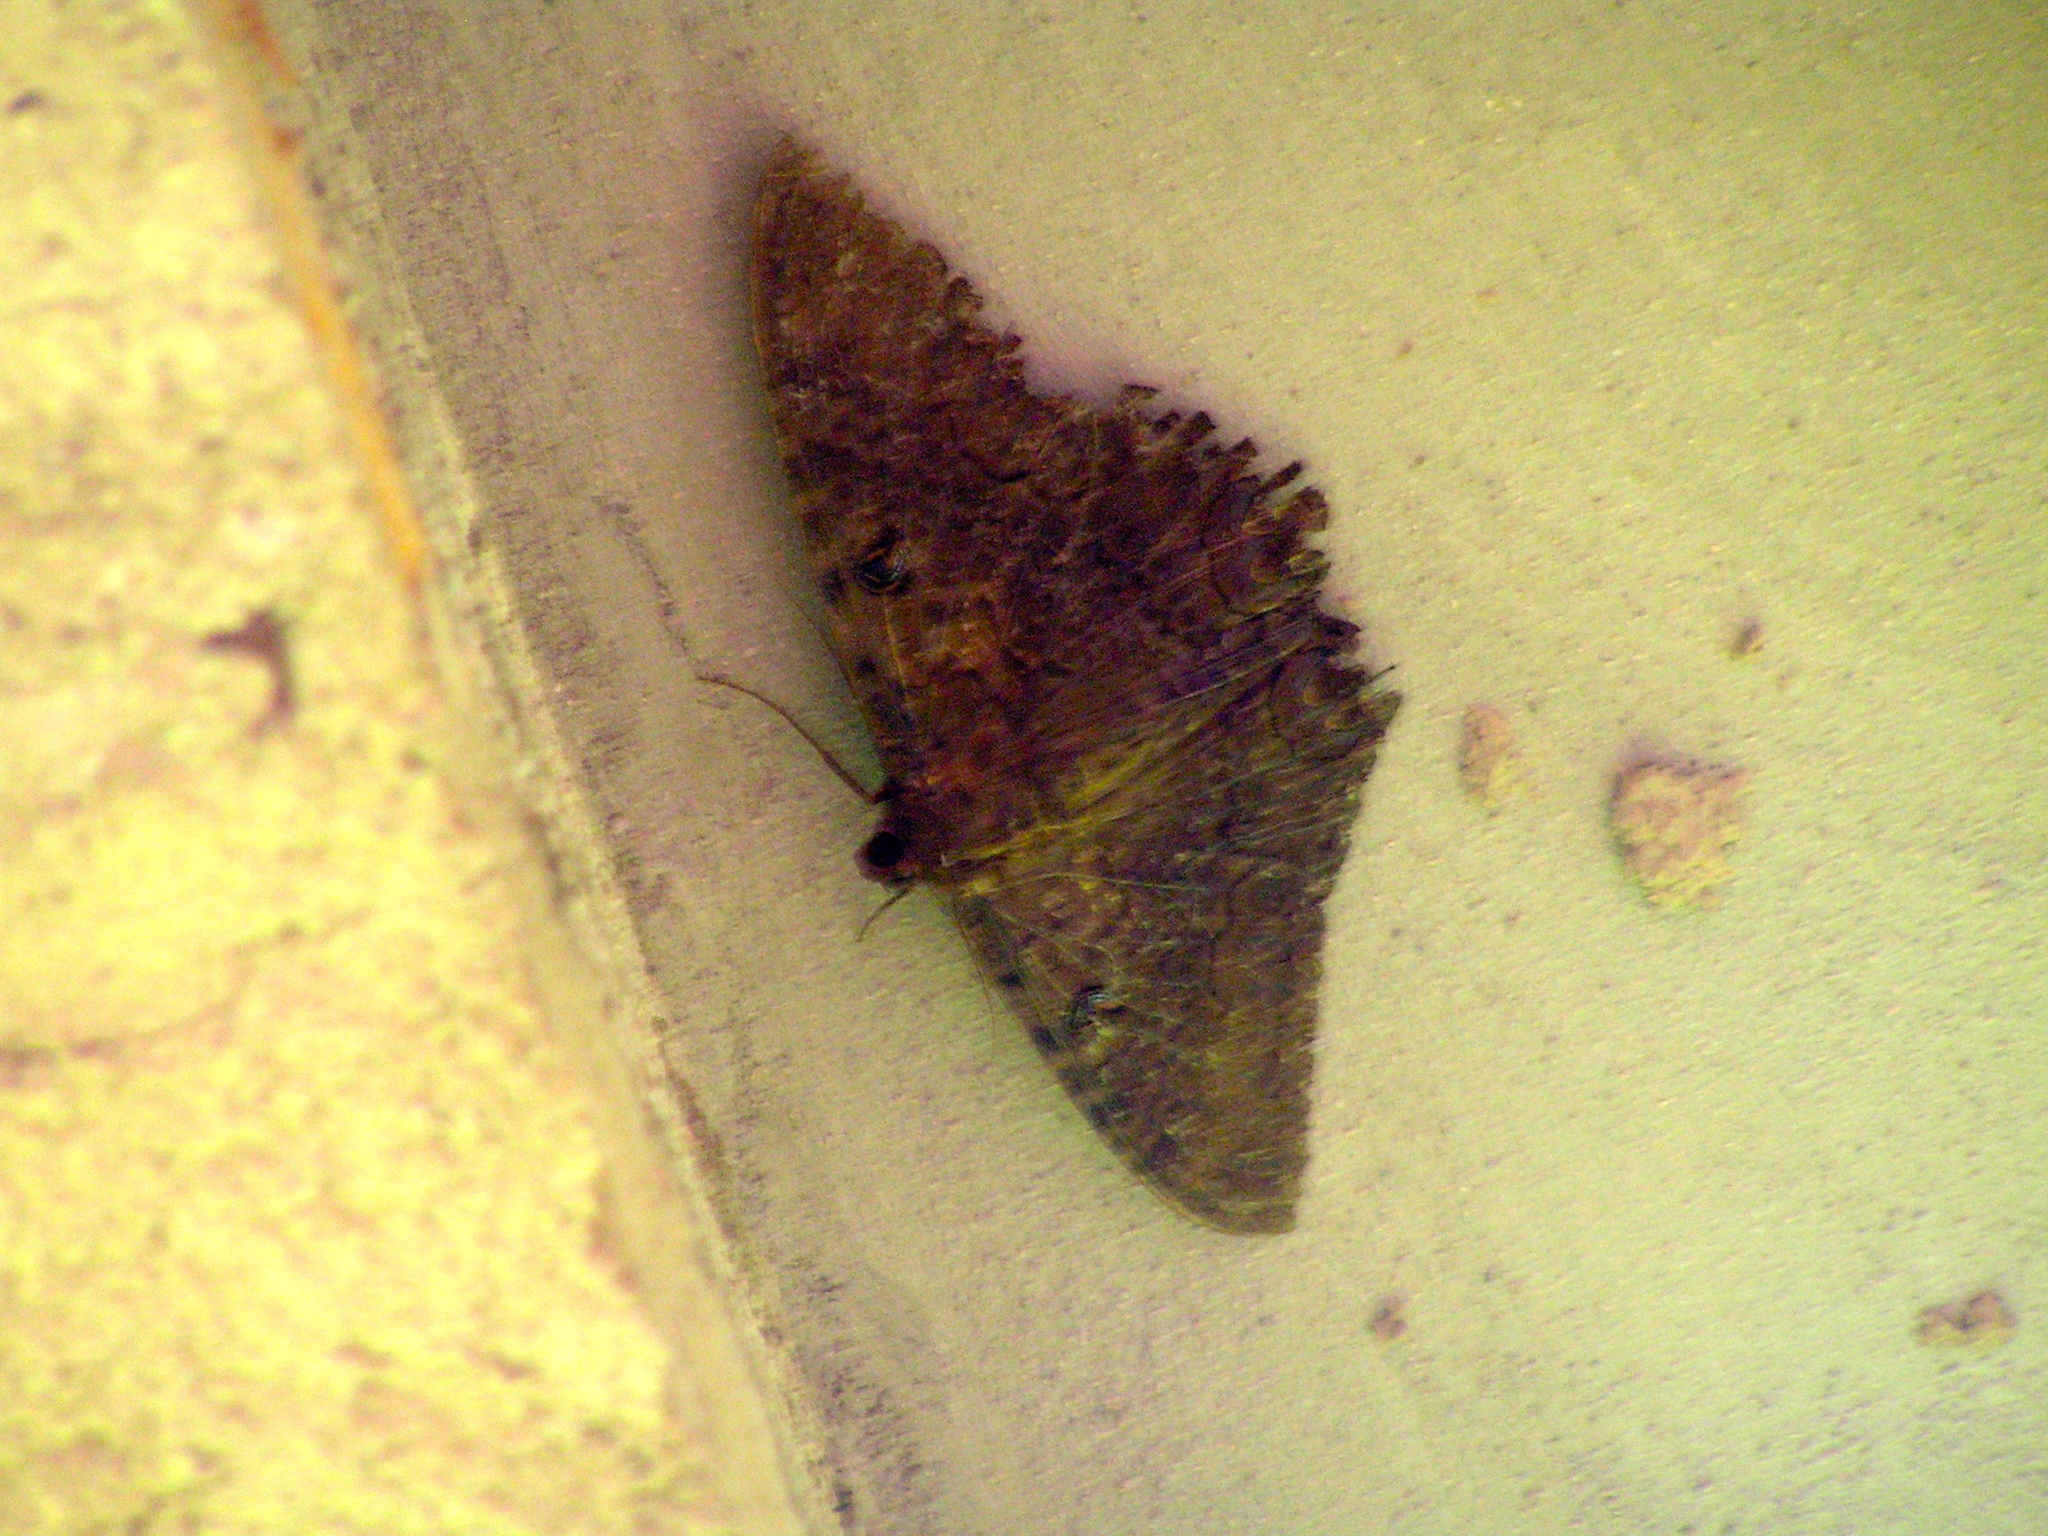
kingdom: Animalia
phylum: Arthropoda
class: Insecta
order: Lepidoptera
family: Erebidae
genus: Ascalapha
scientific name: Ascalapha odorata
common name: Black witch
